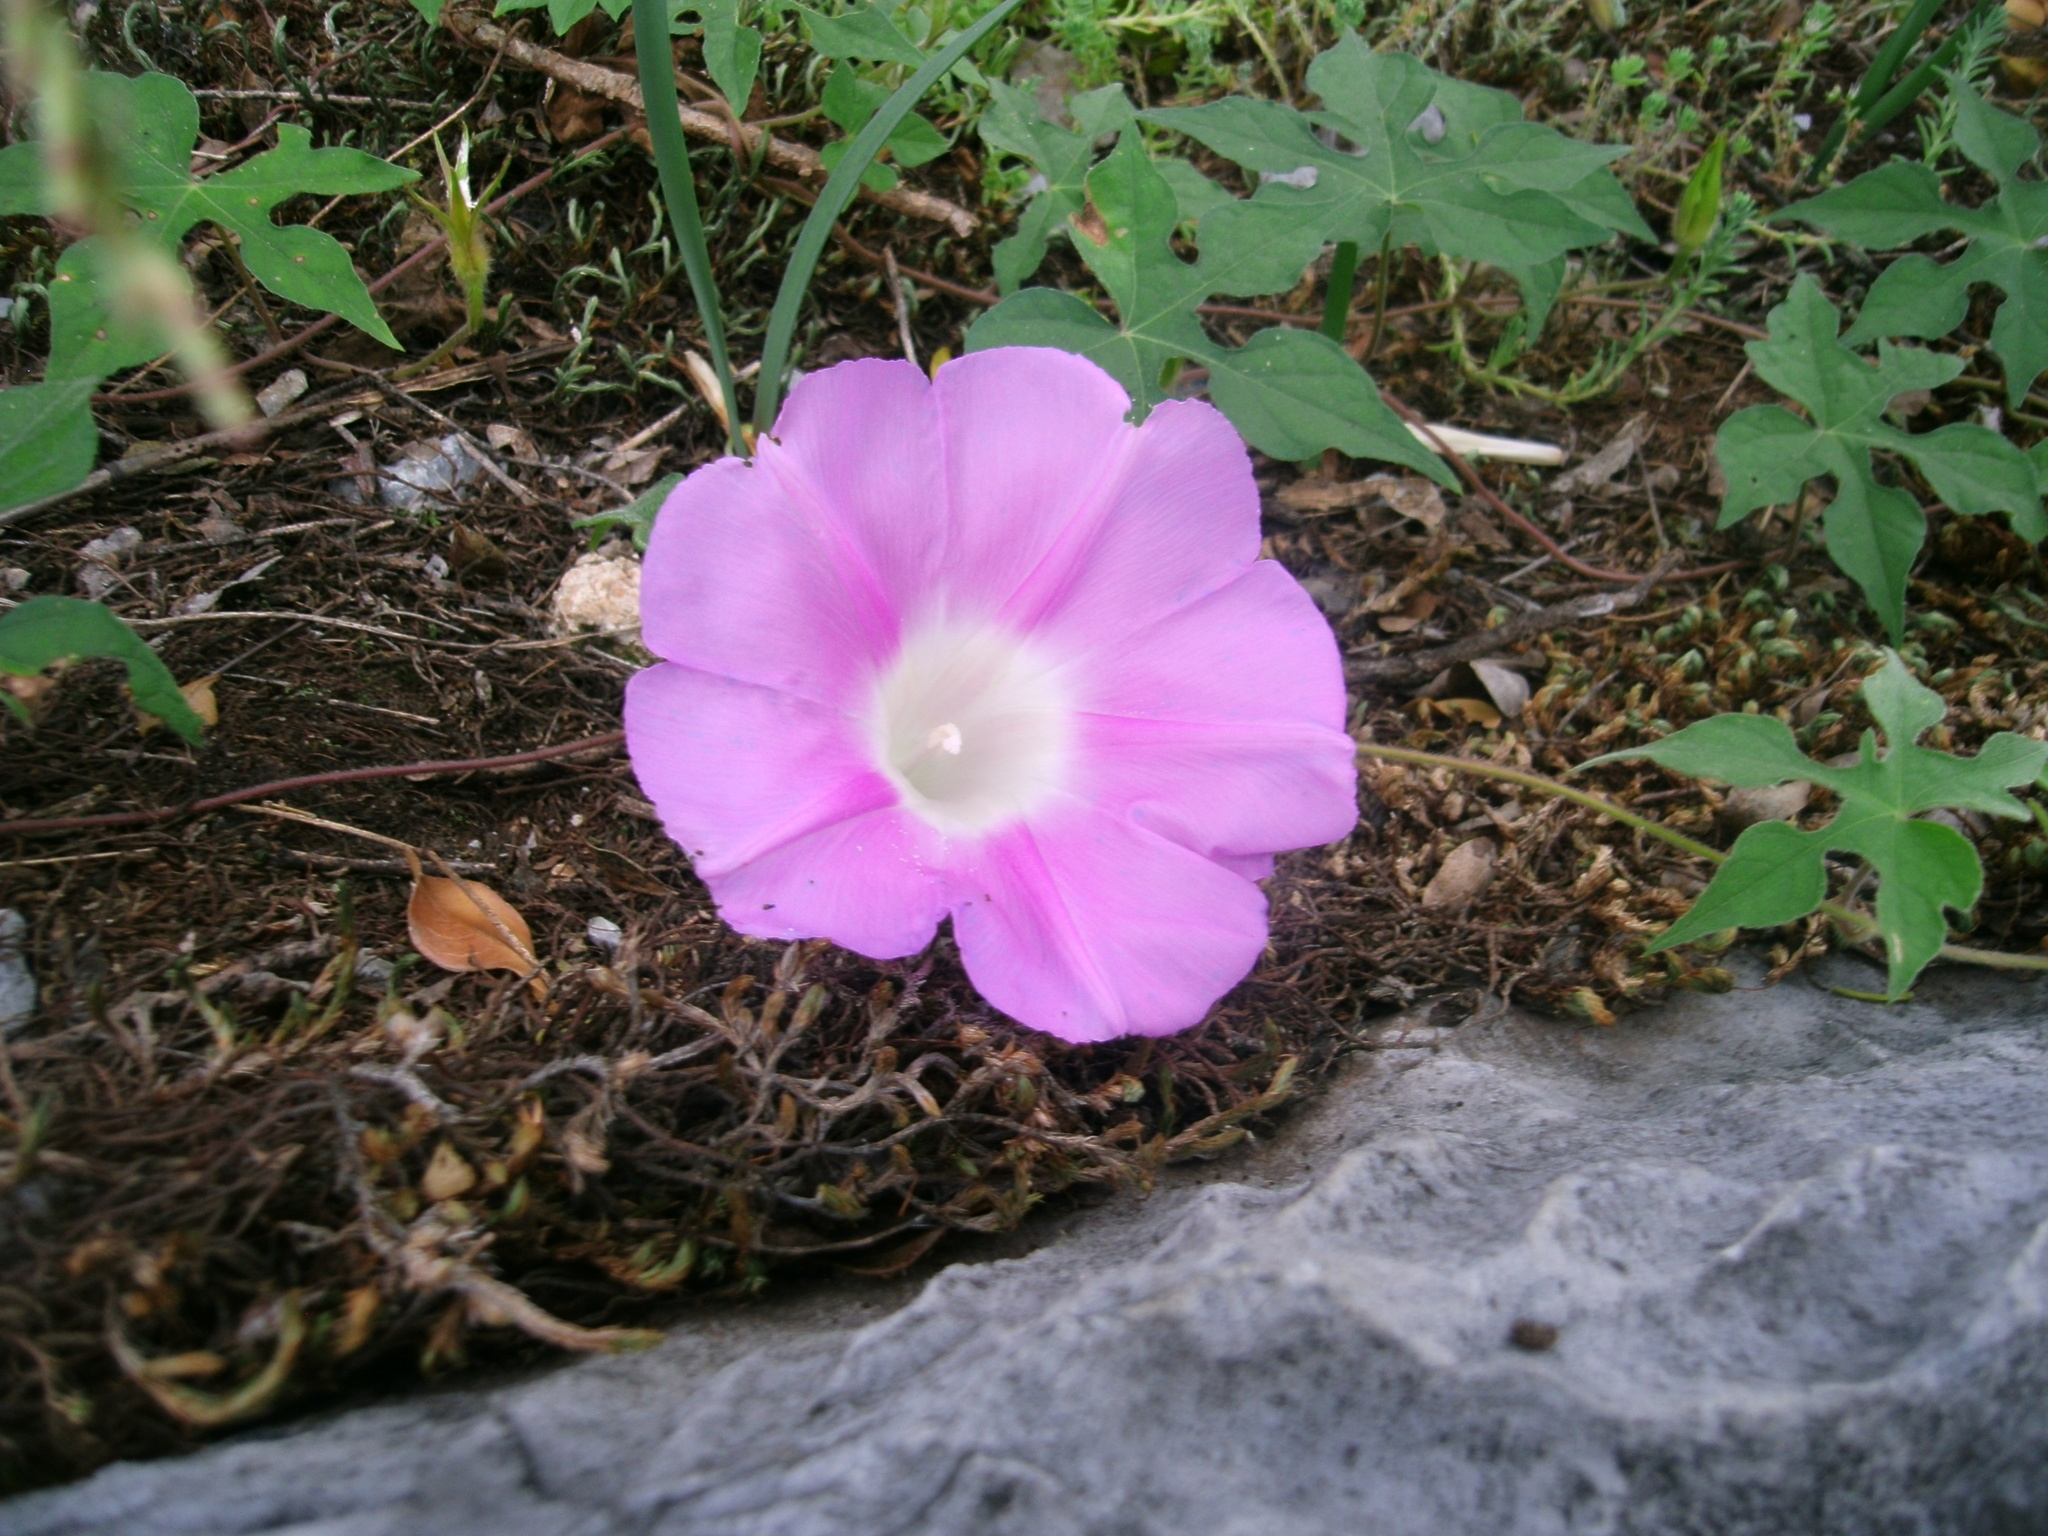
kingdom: Plantae
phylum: Tracheophyta
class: Magnoliopsida
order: Solanales
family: Convolvulaceae
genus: Ipomoea
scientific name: Ipomoea purpurea
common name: Common morning-glory
